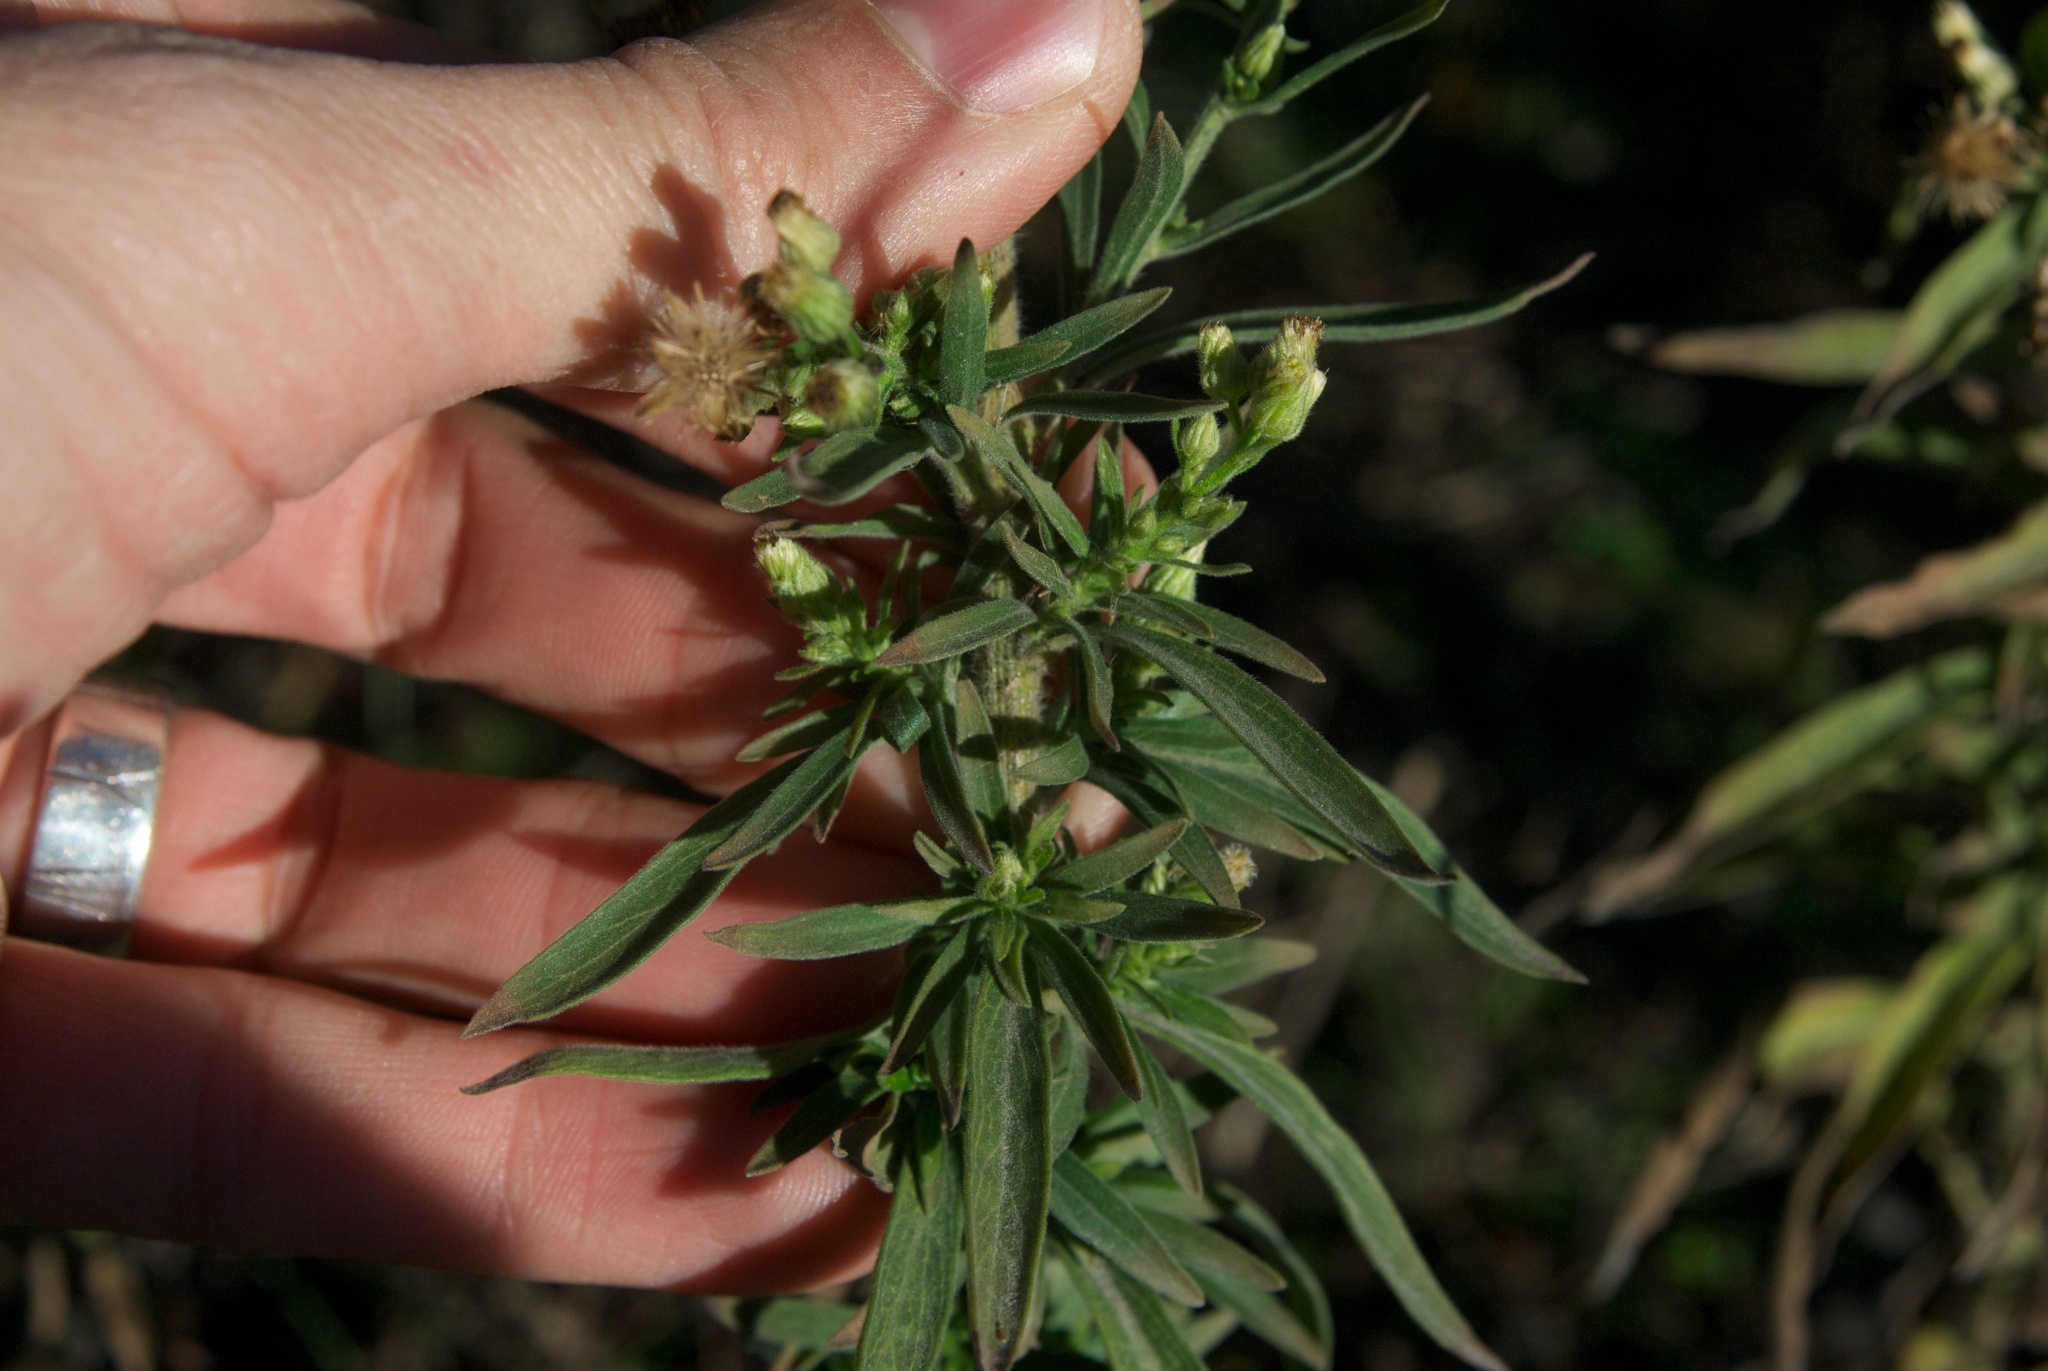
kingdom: Plantae
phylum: Tracheophyta
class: Magnoliopsida
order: Asterales
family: Asteraceae
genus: Erigeron
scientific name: Erigeron bonariensis
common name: Argentine fleabane
